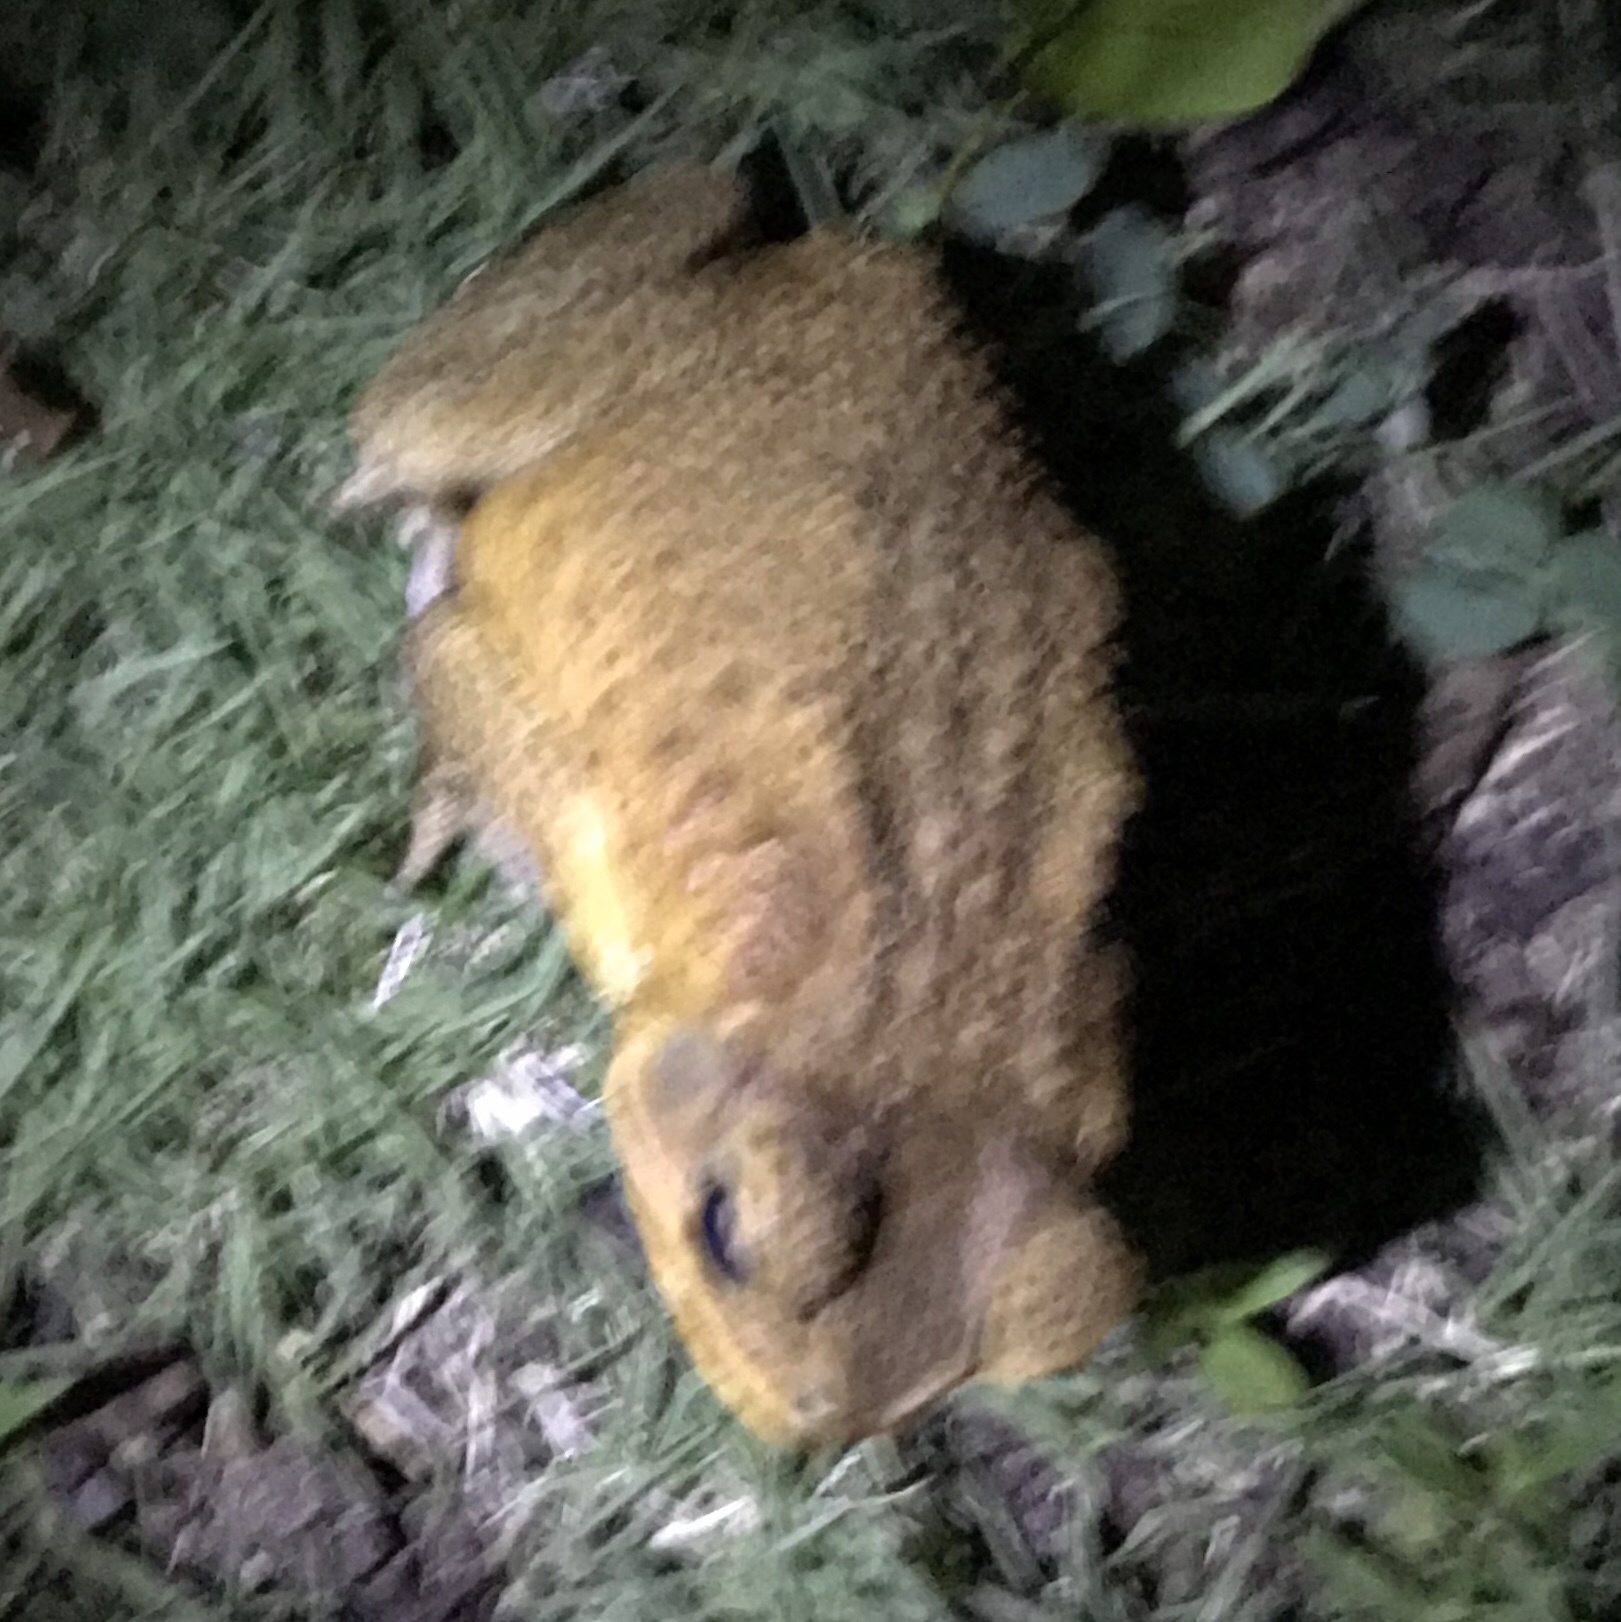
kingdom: Animalia
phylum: Chordata
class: Amphibia
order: Anura
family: Bufonidae
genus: Rhinella
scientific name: Rhinella marina
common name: Cane toad
